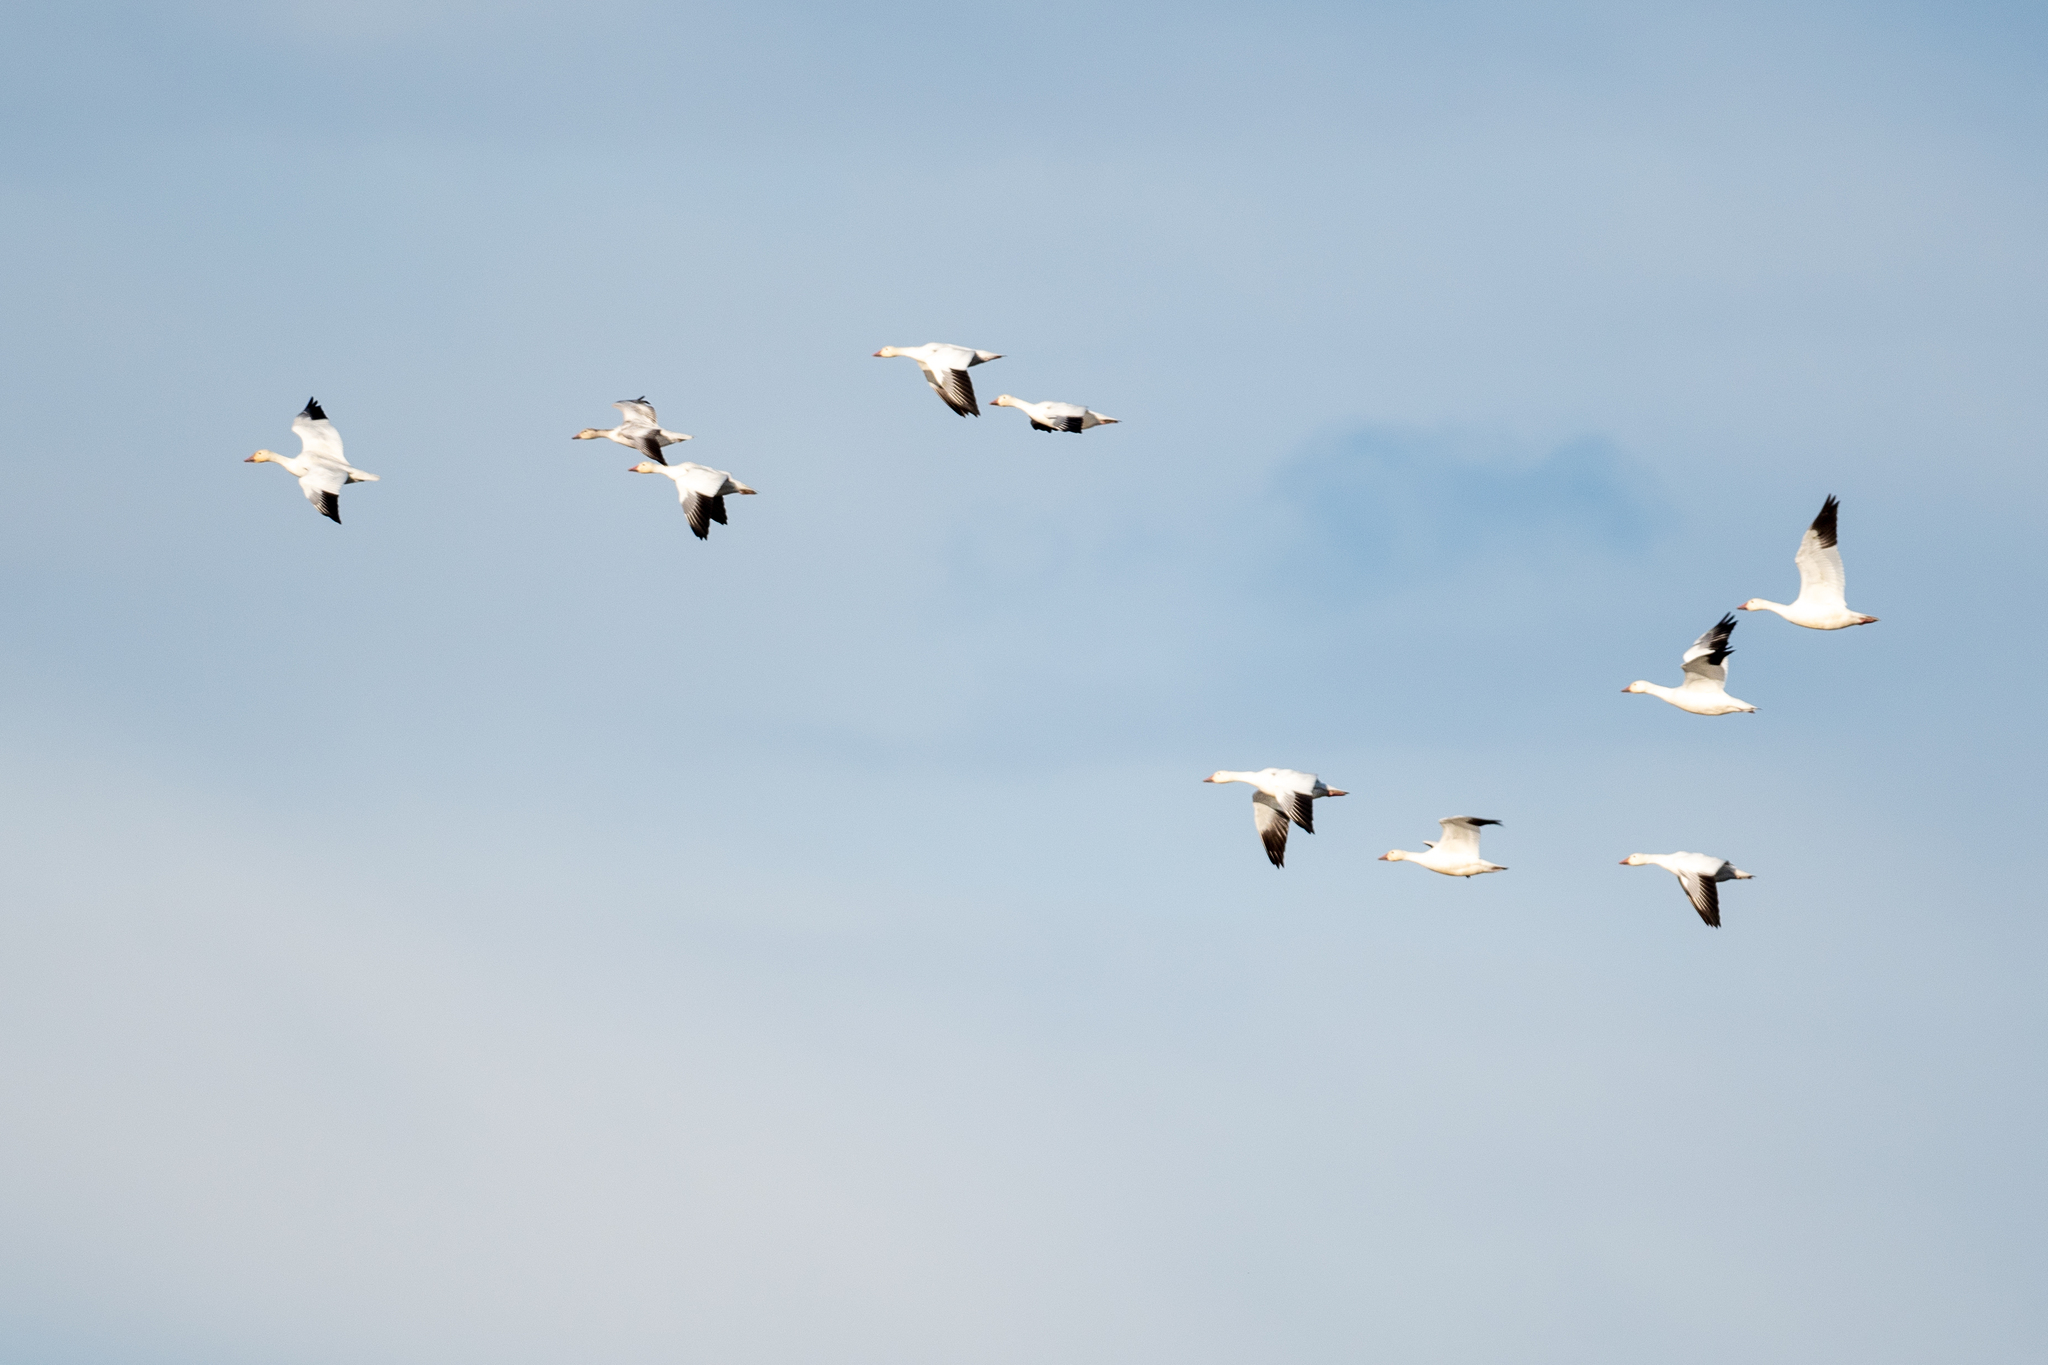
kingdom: Animalia
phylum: Chordata
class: Aves
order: Anseriformes
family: Anatidae
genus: Anser
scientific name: Anser caerulescens
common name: Snow goose
